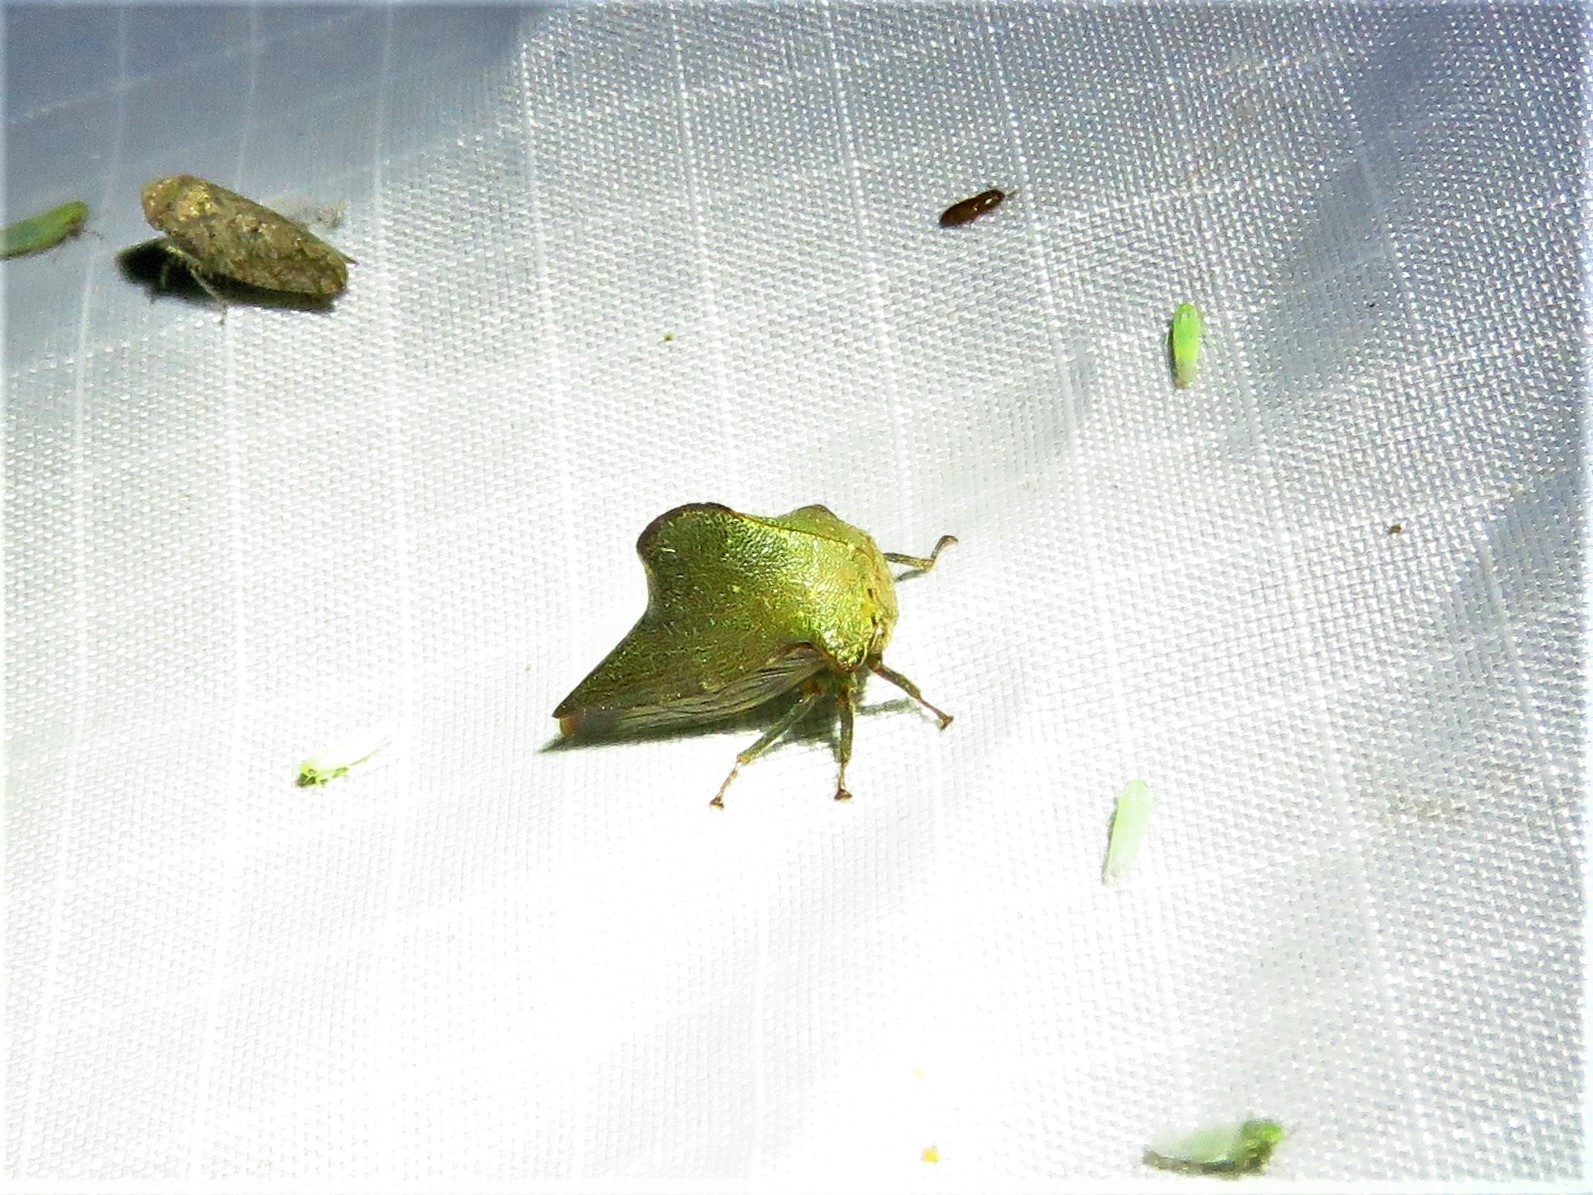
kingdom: Animalia
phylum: Arthropoda
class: Insecta
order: Hemiptera
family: Membracidae
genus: Telamona
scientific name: Telamona monticola
